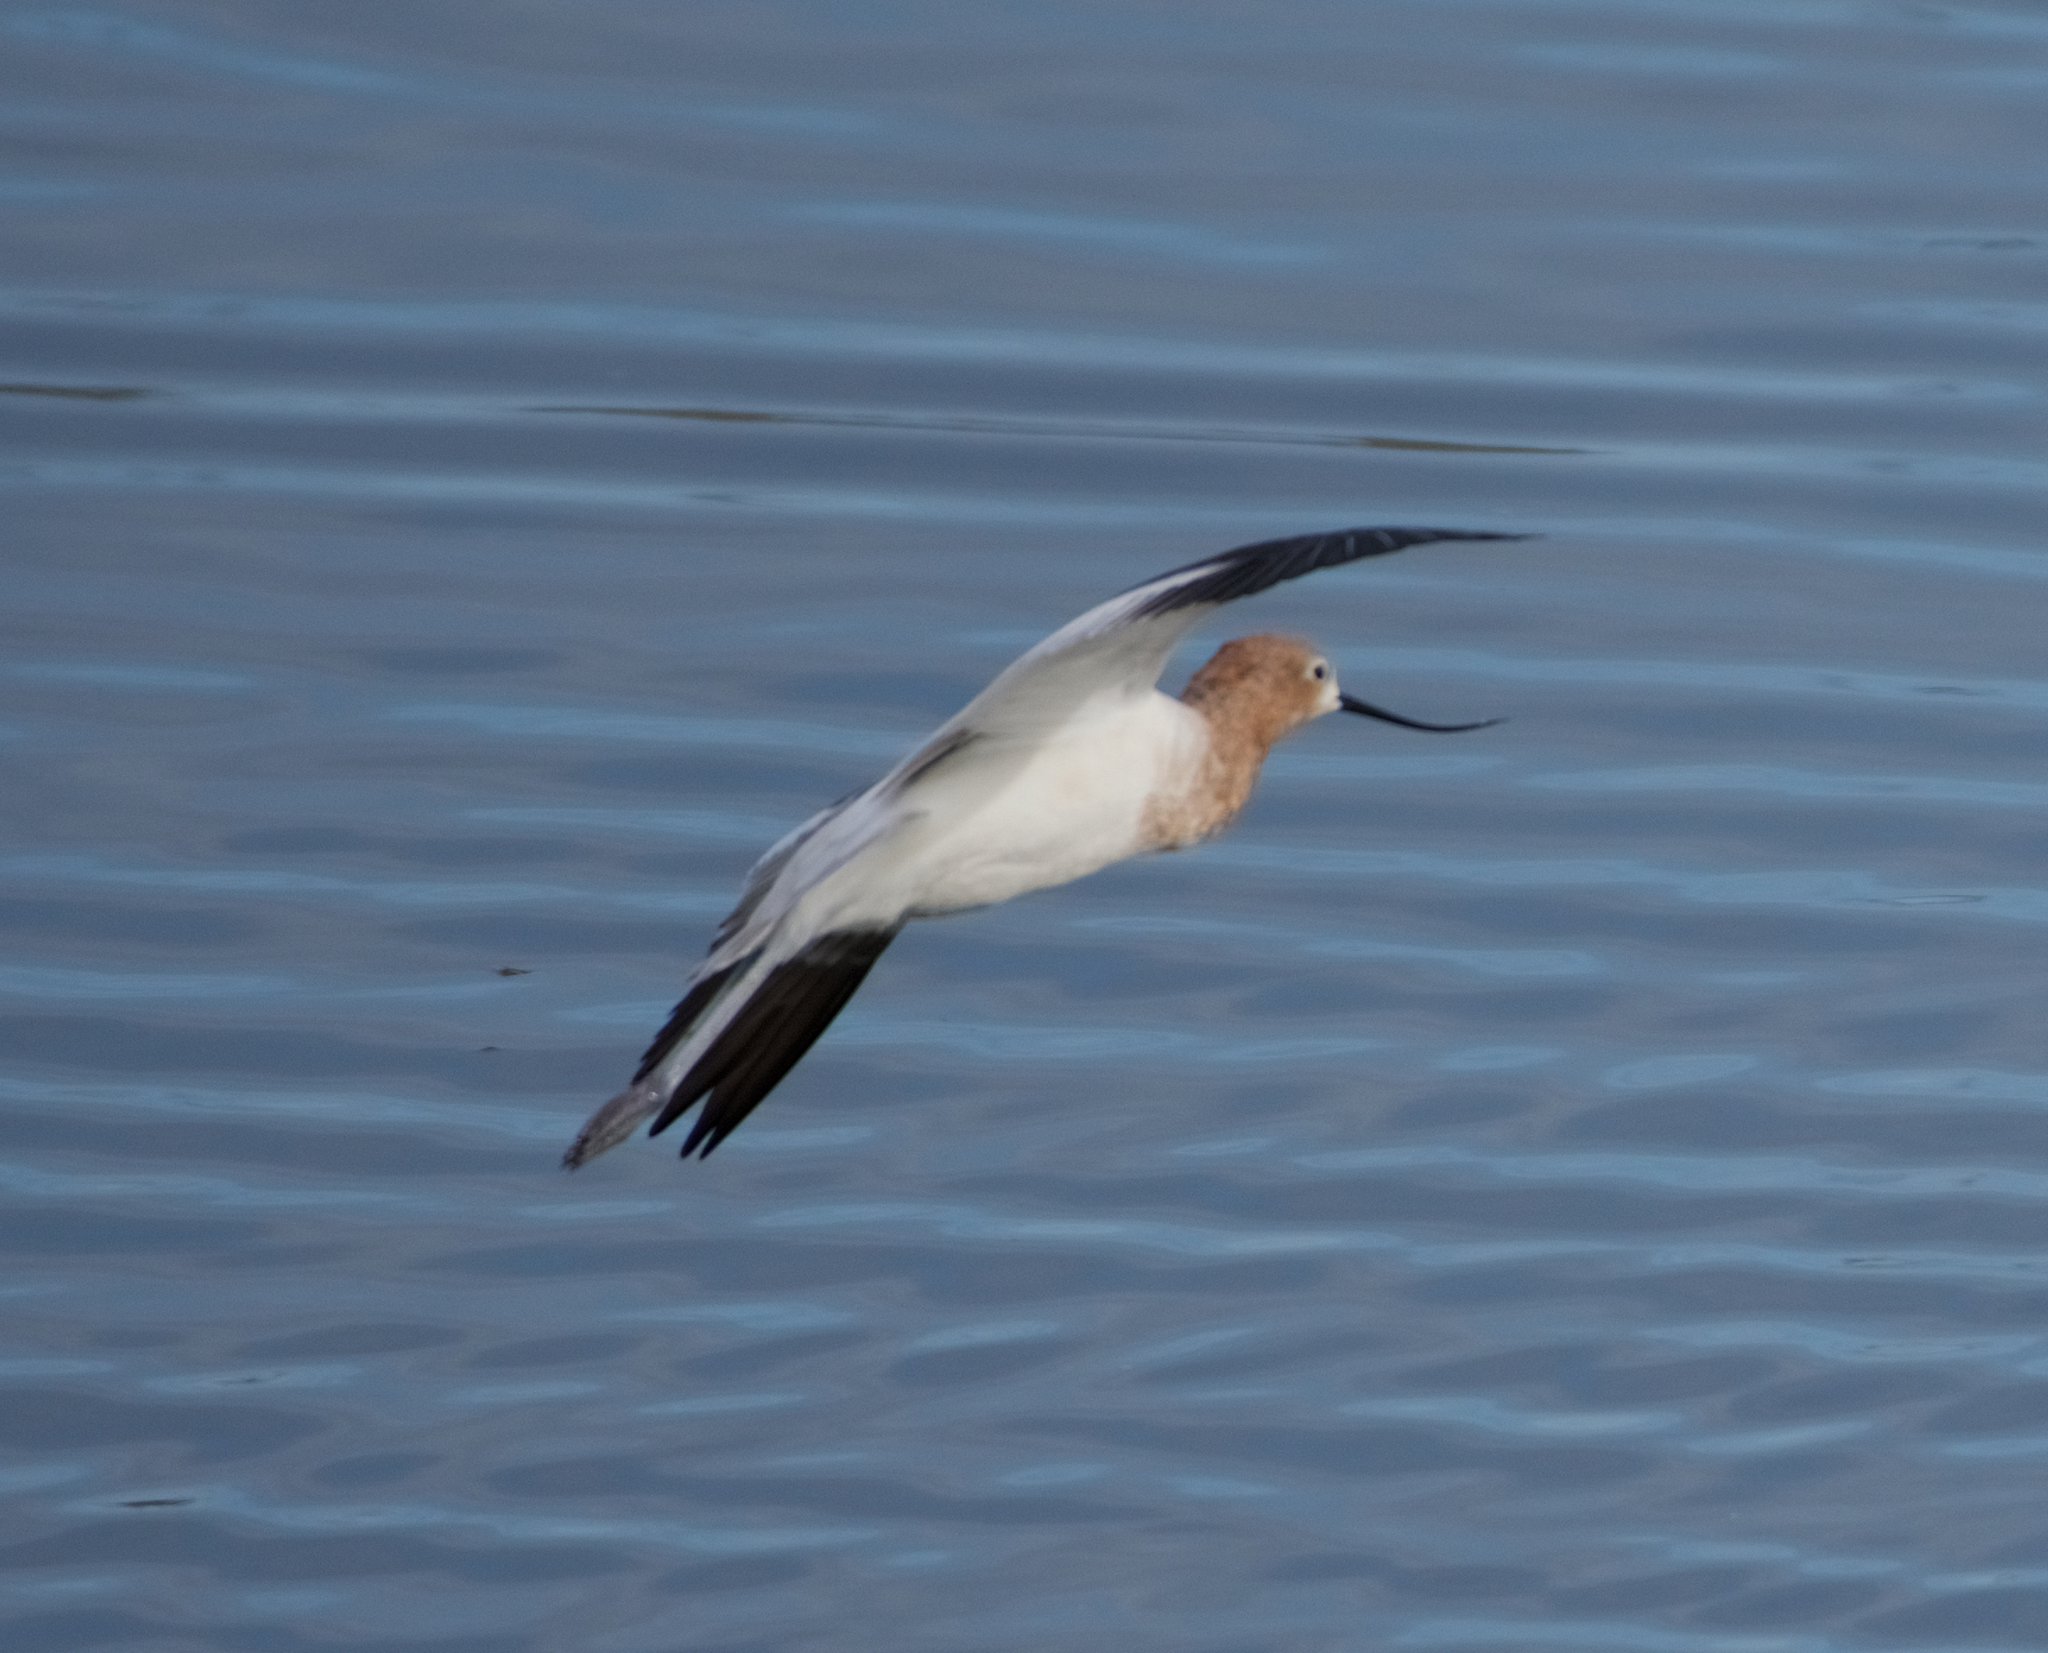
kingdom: Animalia
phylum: Chordata
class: Aves
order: Charadriiformes
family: Recurvirostridae
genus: Recurvirostra
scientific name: Recurvirostra americana
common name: American avocet
